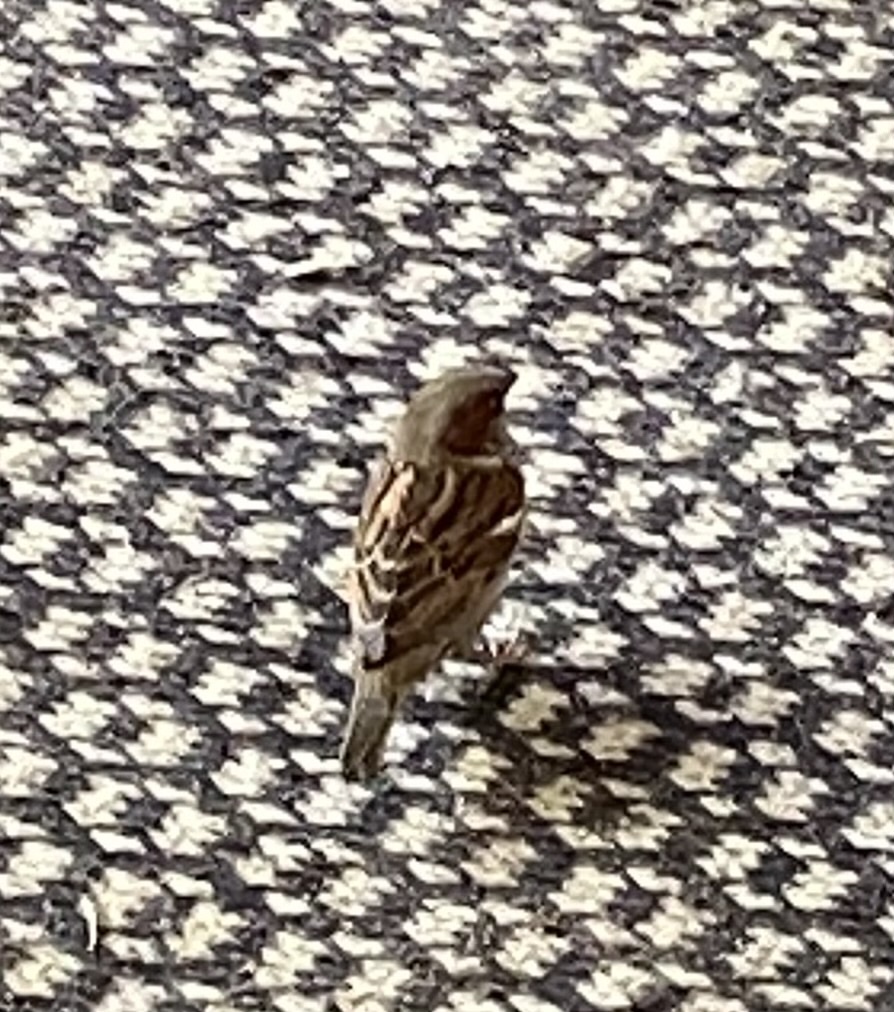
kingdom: Animalia
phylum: Chordata
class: Aves
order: Passeriformes
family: Passeridae
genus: Passer
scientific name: Passer domesticus
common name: House sparrow
